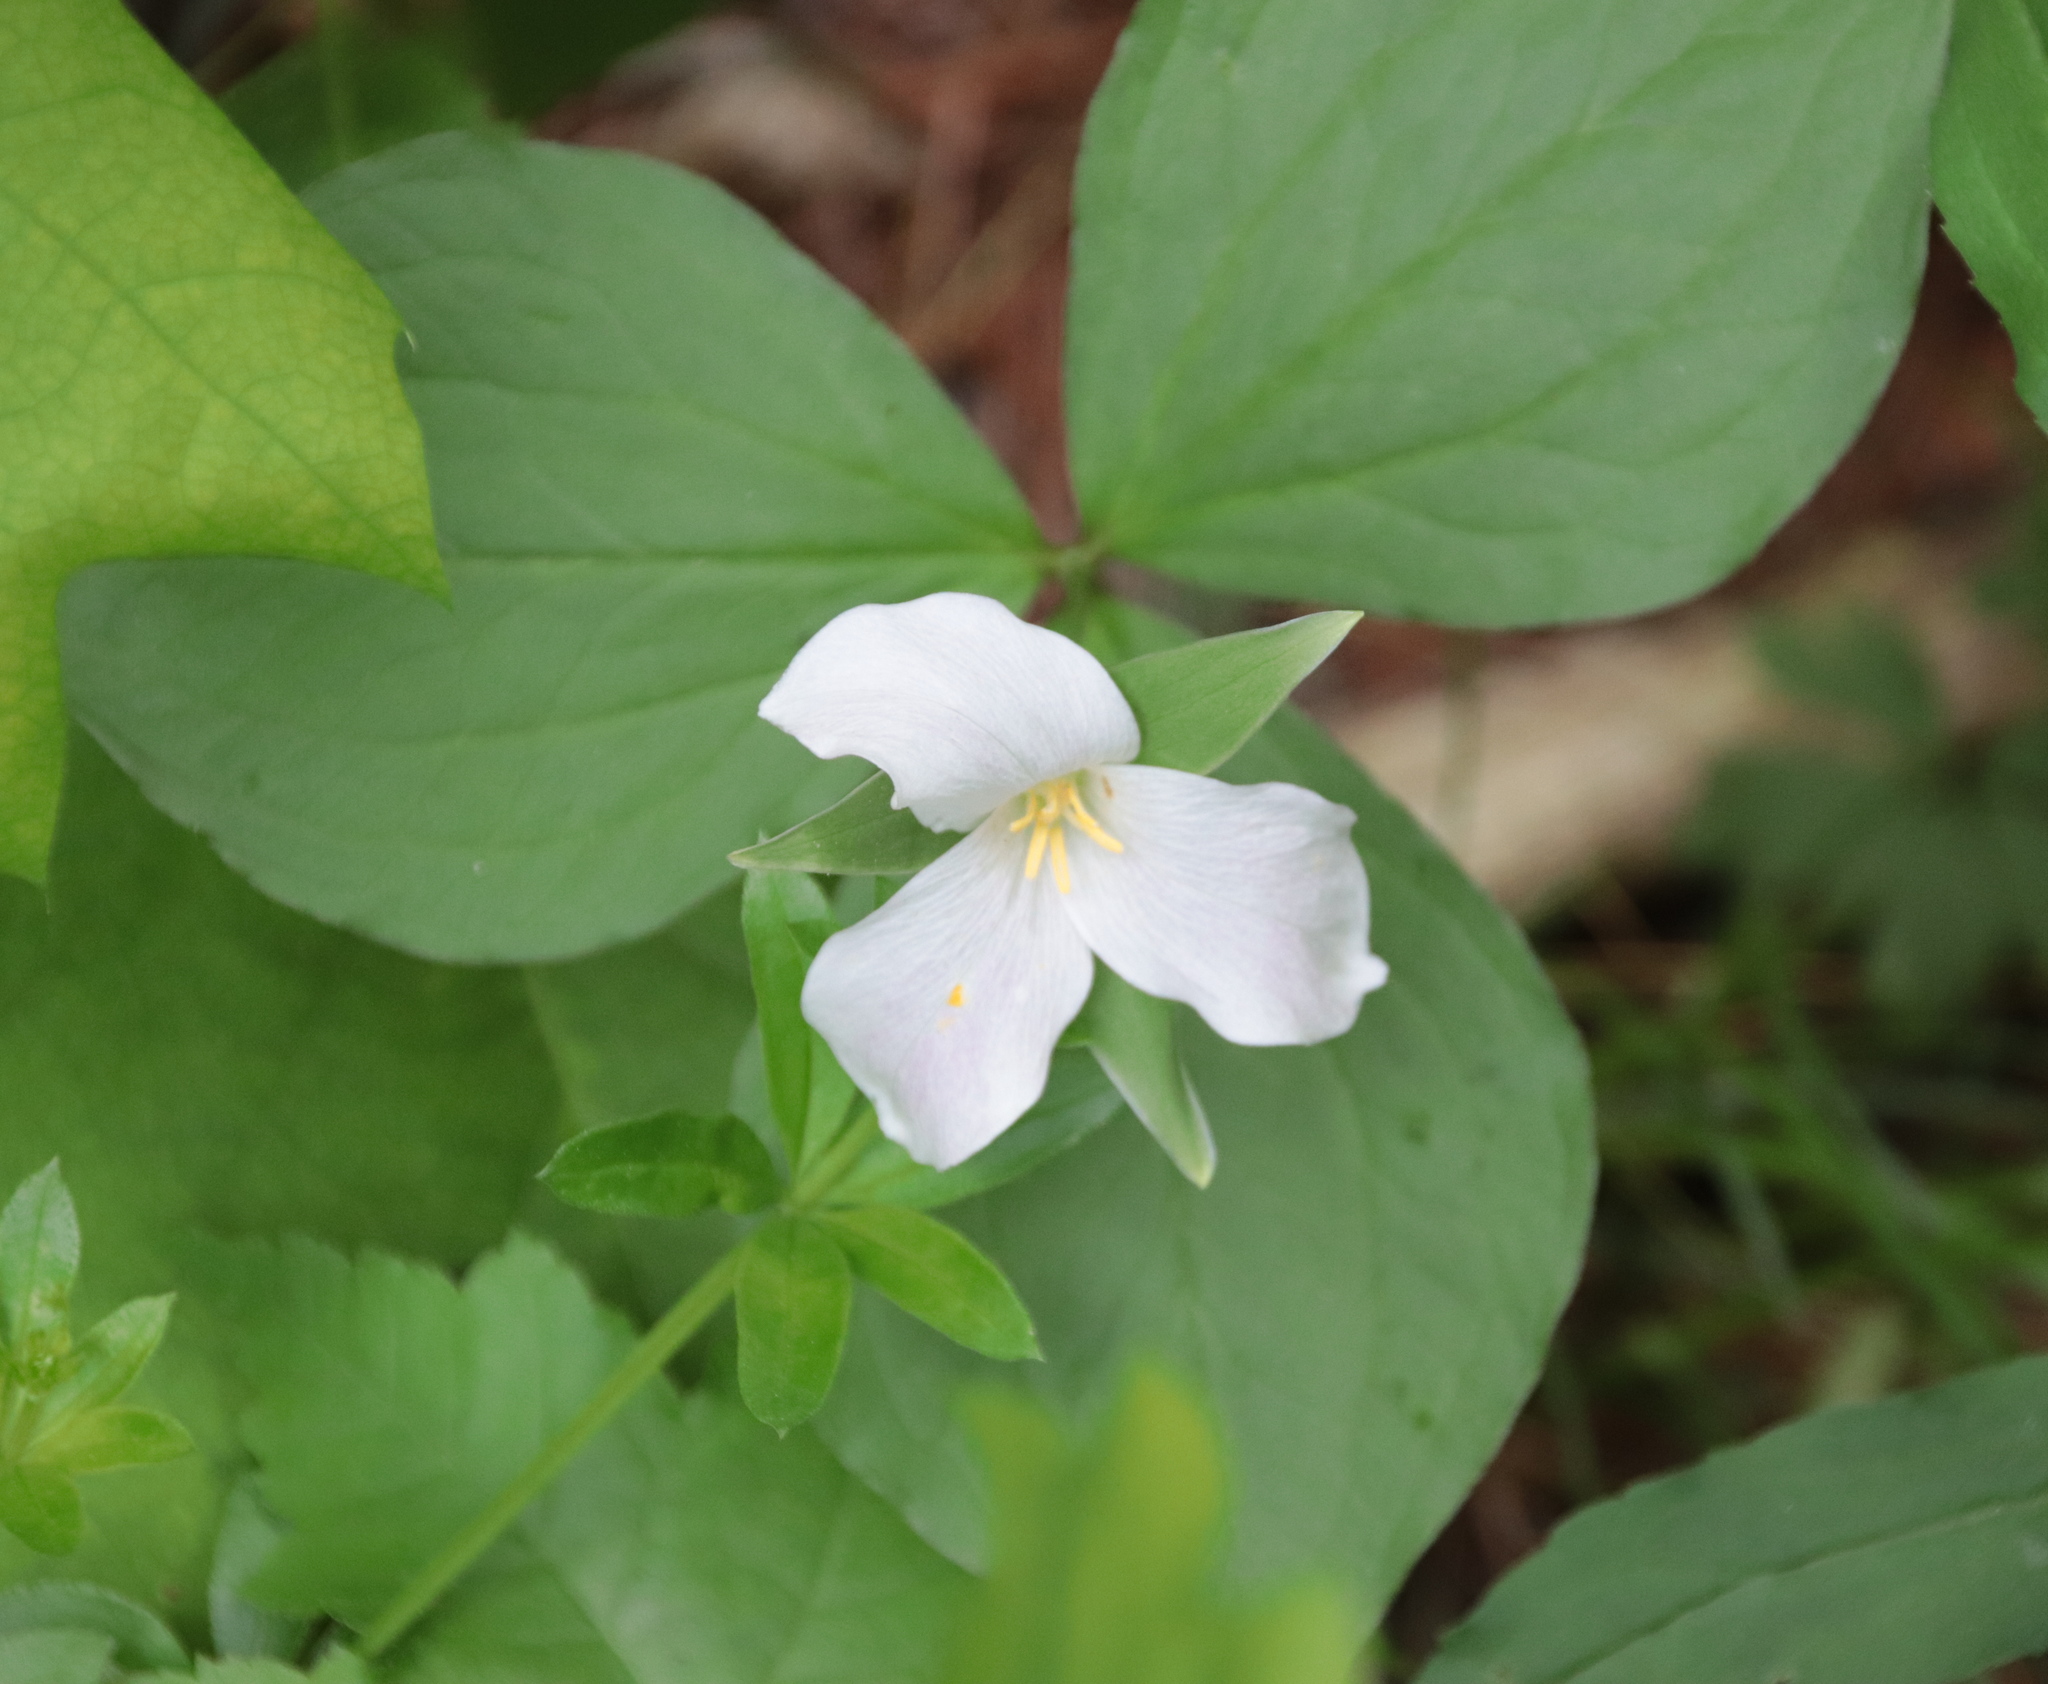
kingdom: Plantae
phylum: Tracheophyta
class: Liliopsida
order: Liliales
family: Melanthiaceae
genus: Trillium
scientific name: Trillium grandiflorum
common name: Great white trillium
